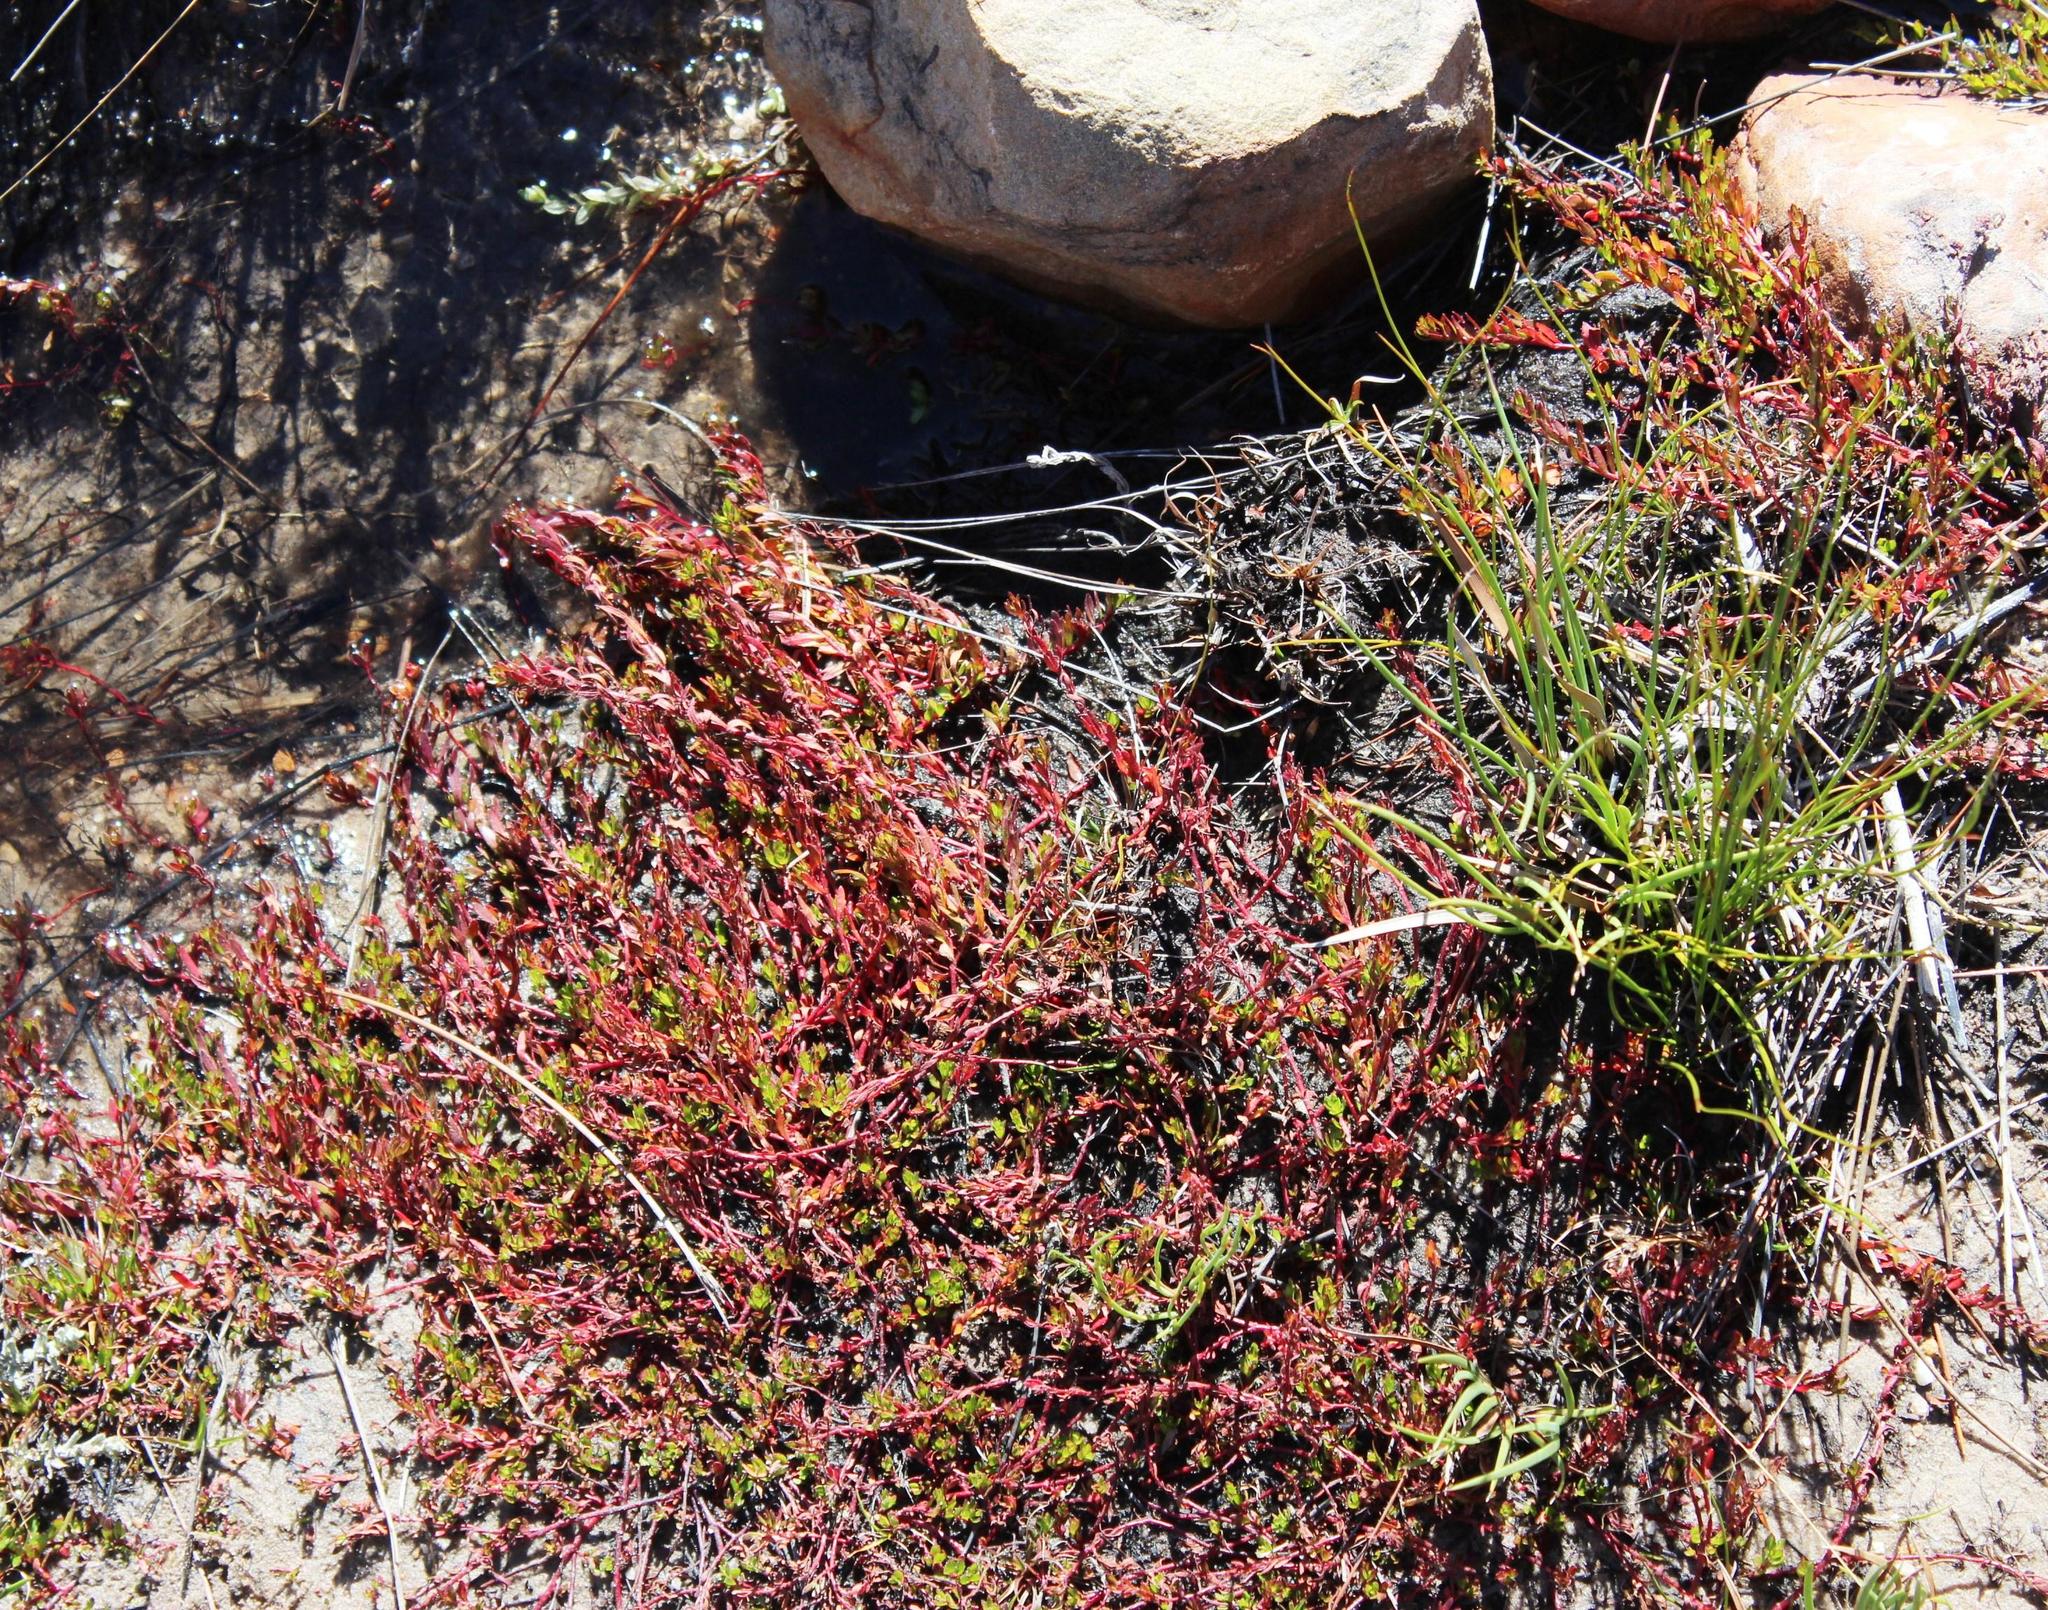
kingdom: Plantae
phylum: Tracheophyta
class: Magnoliopsida
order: Saxifragales
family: Haloragaceae
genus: Laurembergia
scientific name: Laurembergia repens
